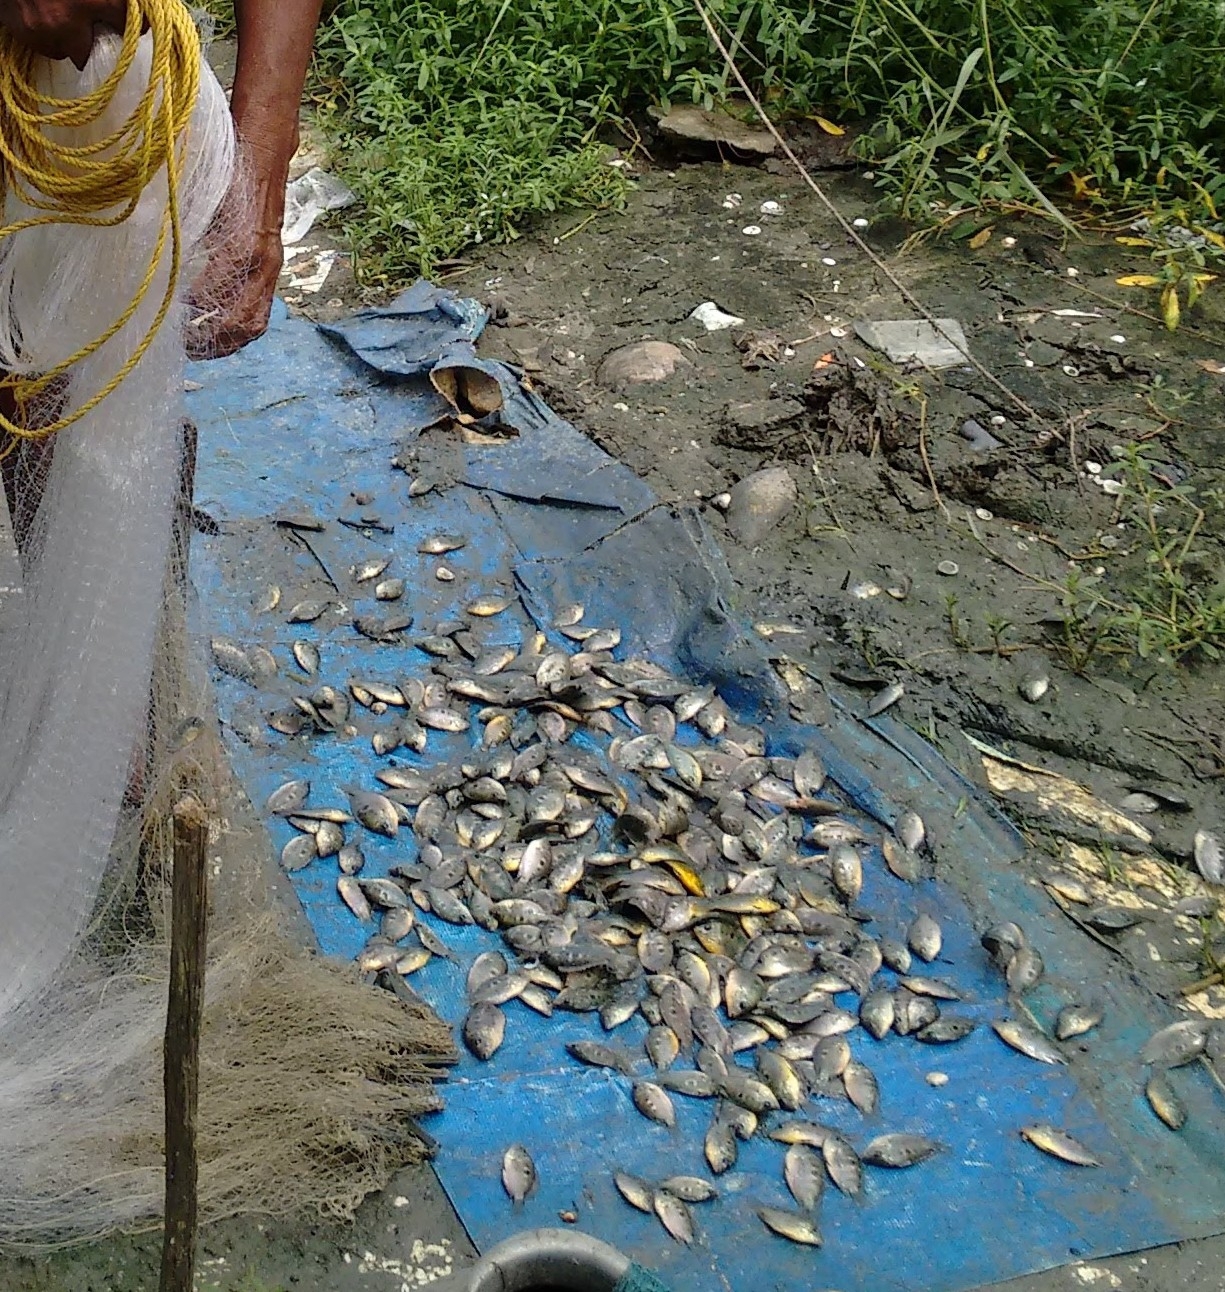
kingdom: Animalia
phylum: Chordata
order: Perciformes
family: Cichlidae
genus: Etroplus
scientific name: Etroplus maculatus
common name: Orange chromide
